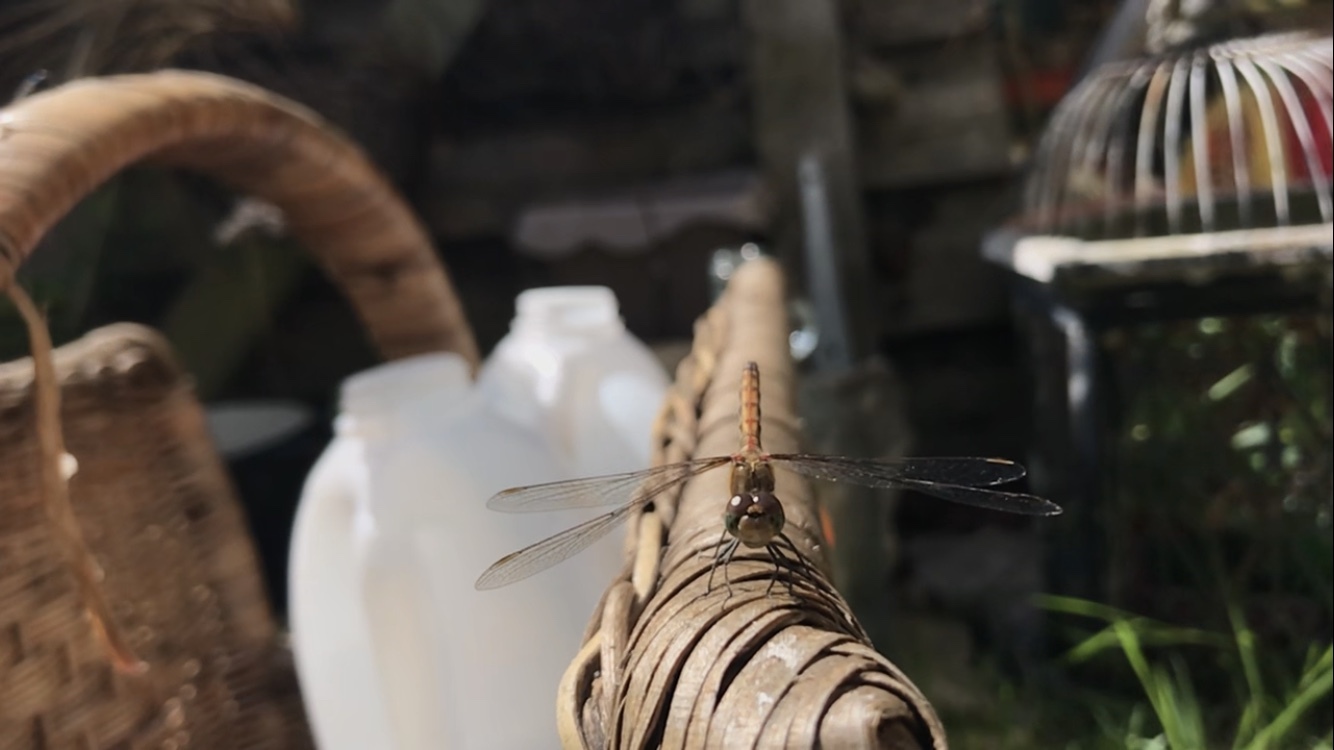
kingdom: Animalia
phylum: Arthropoda
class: Insecta
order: Odonata
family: Libellulidae
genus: Sympetrum
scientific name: Sympetrum striolatum
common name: Common darter
